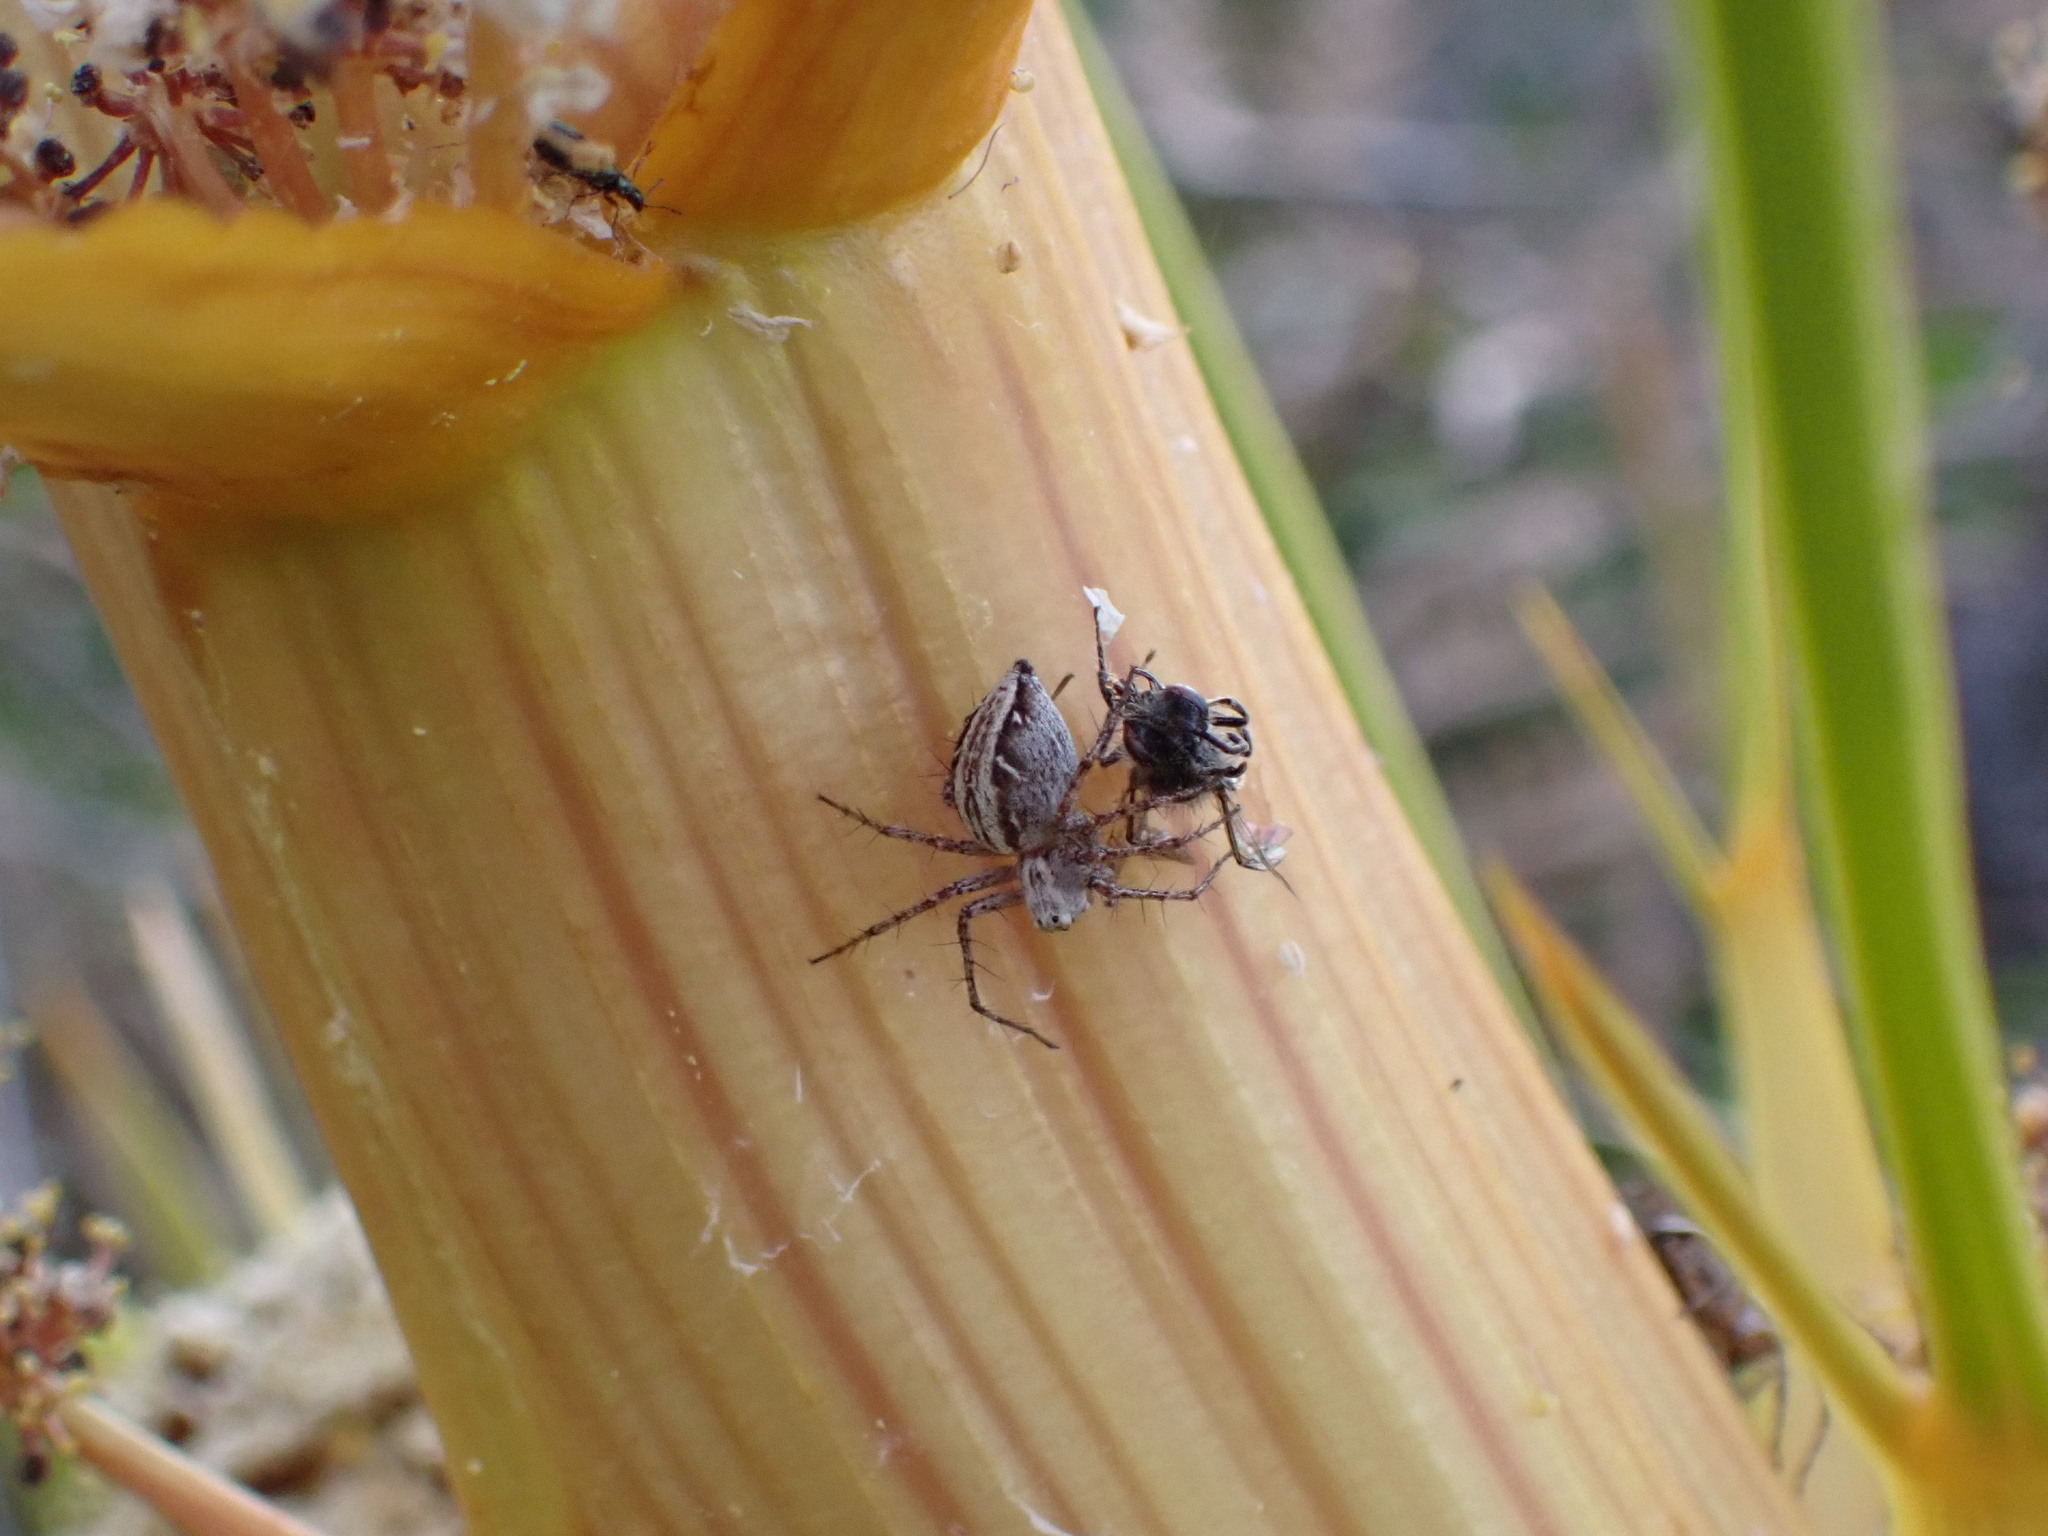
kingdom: Animalia
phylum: Arthropoda
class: Arachnida
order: Araneae
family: Oxyopidae
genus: Oxyopes
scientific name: Oxyopes gracilipes
